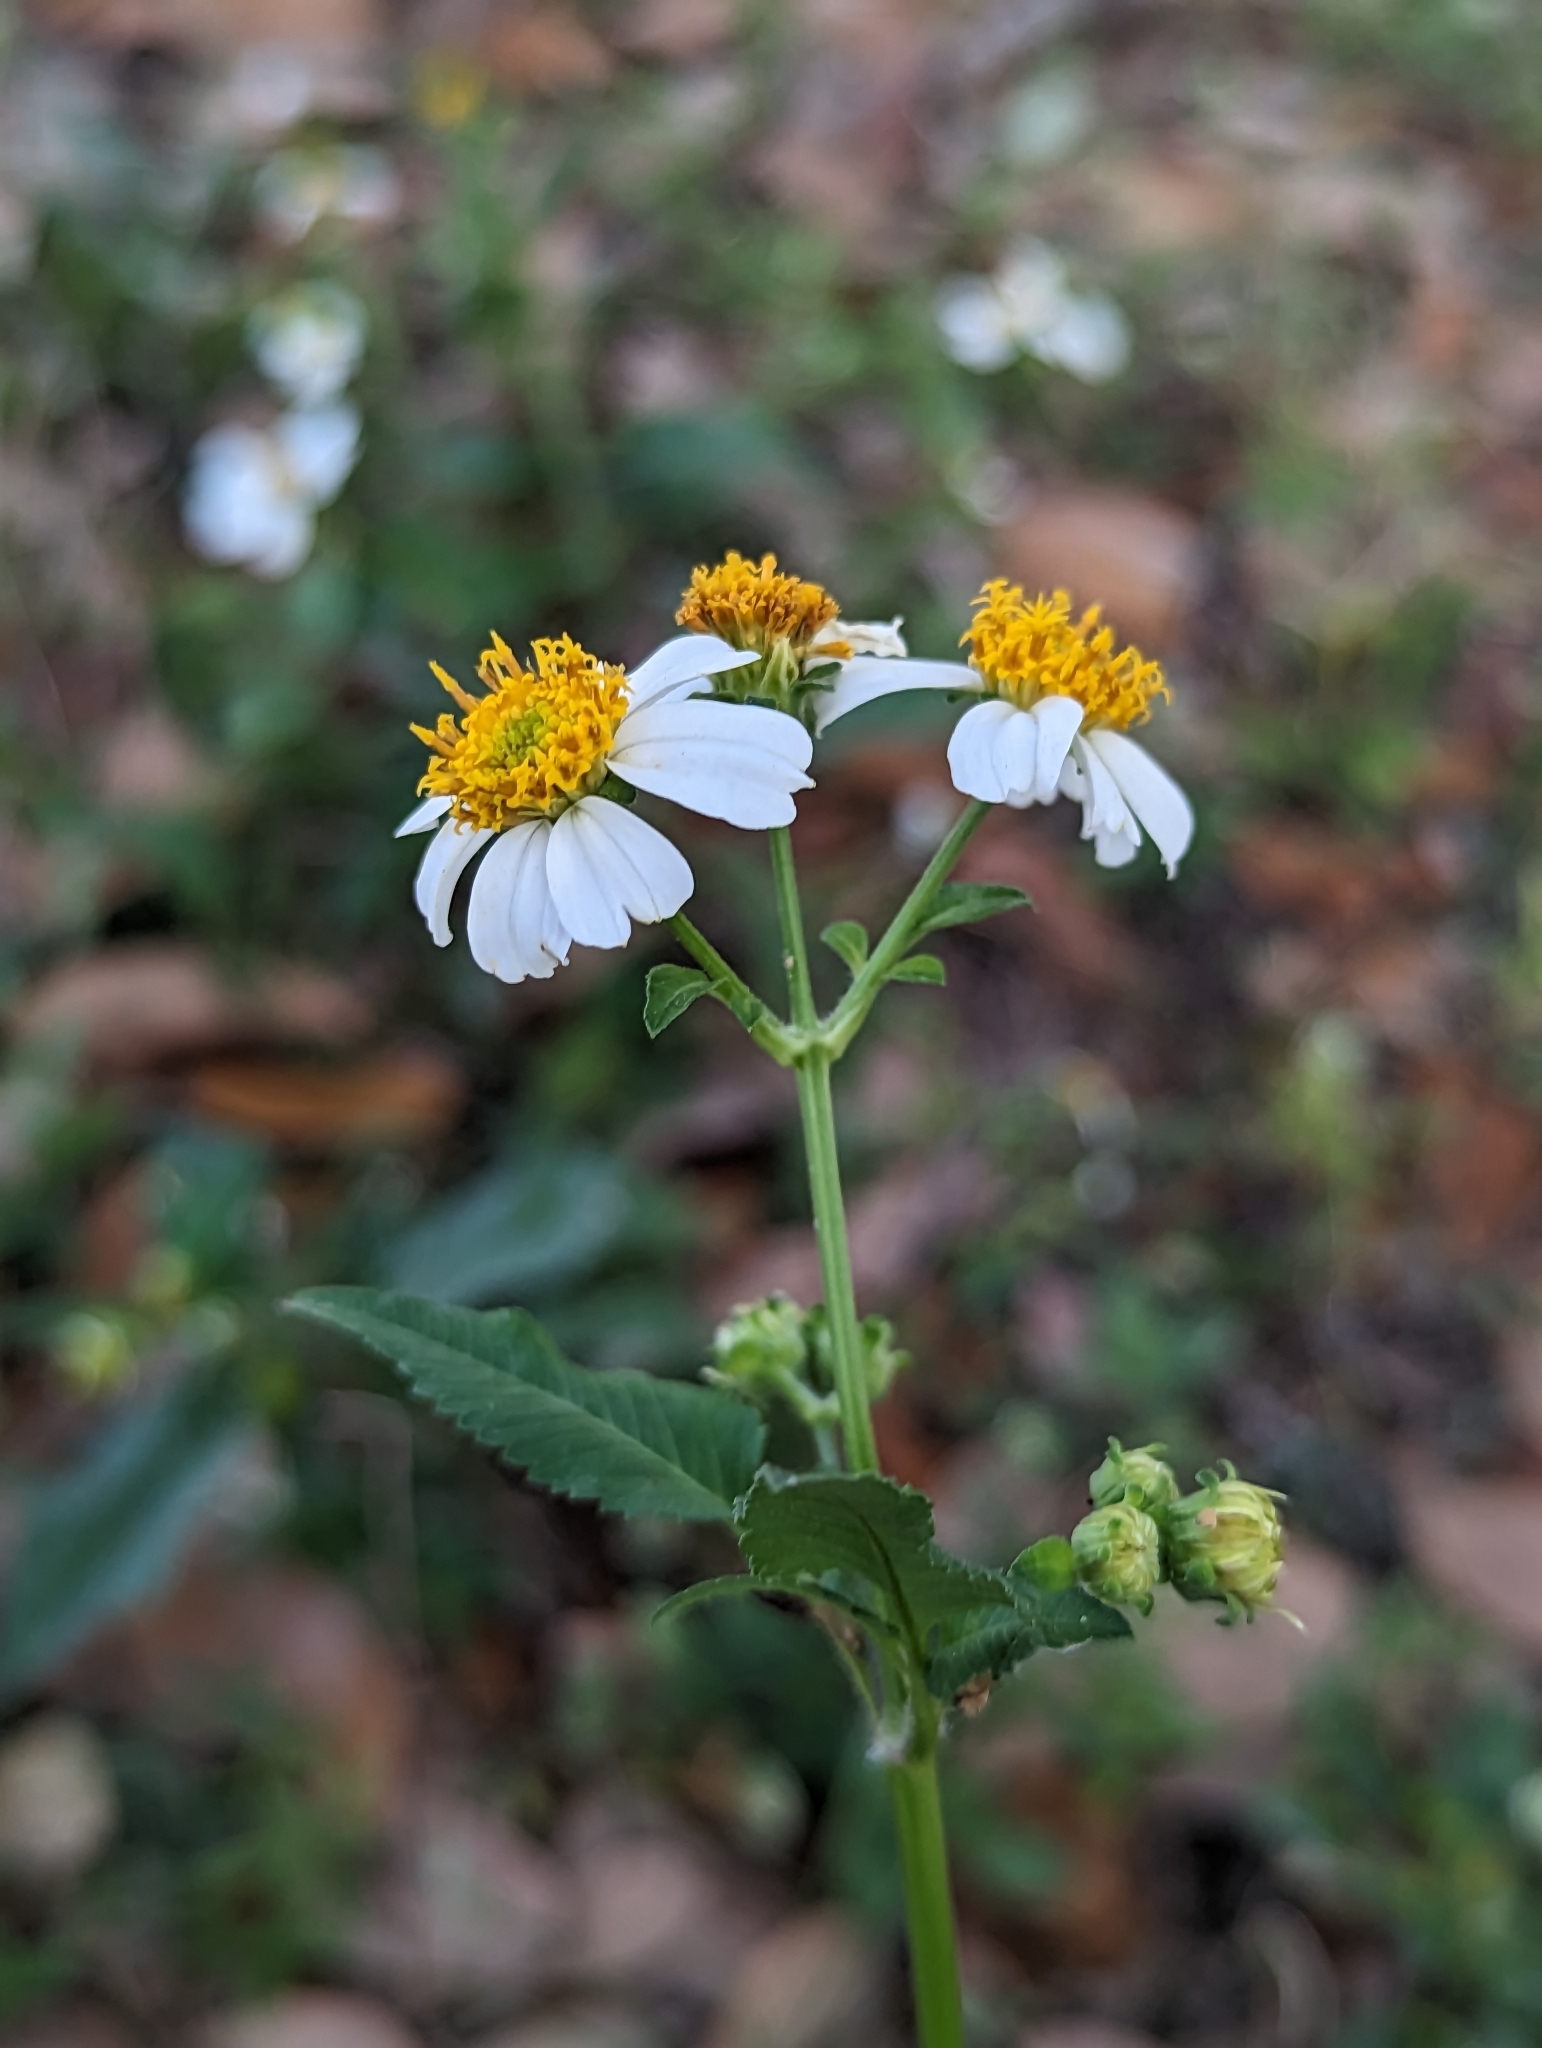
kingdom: Plantae
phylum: Tracheophyta
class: Magnoliopsida
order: Asterales
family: Asteraceae
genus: Bidens
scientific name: Bidens alba
